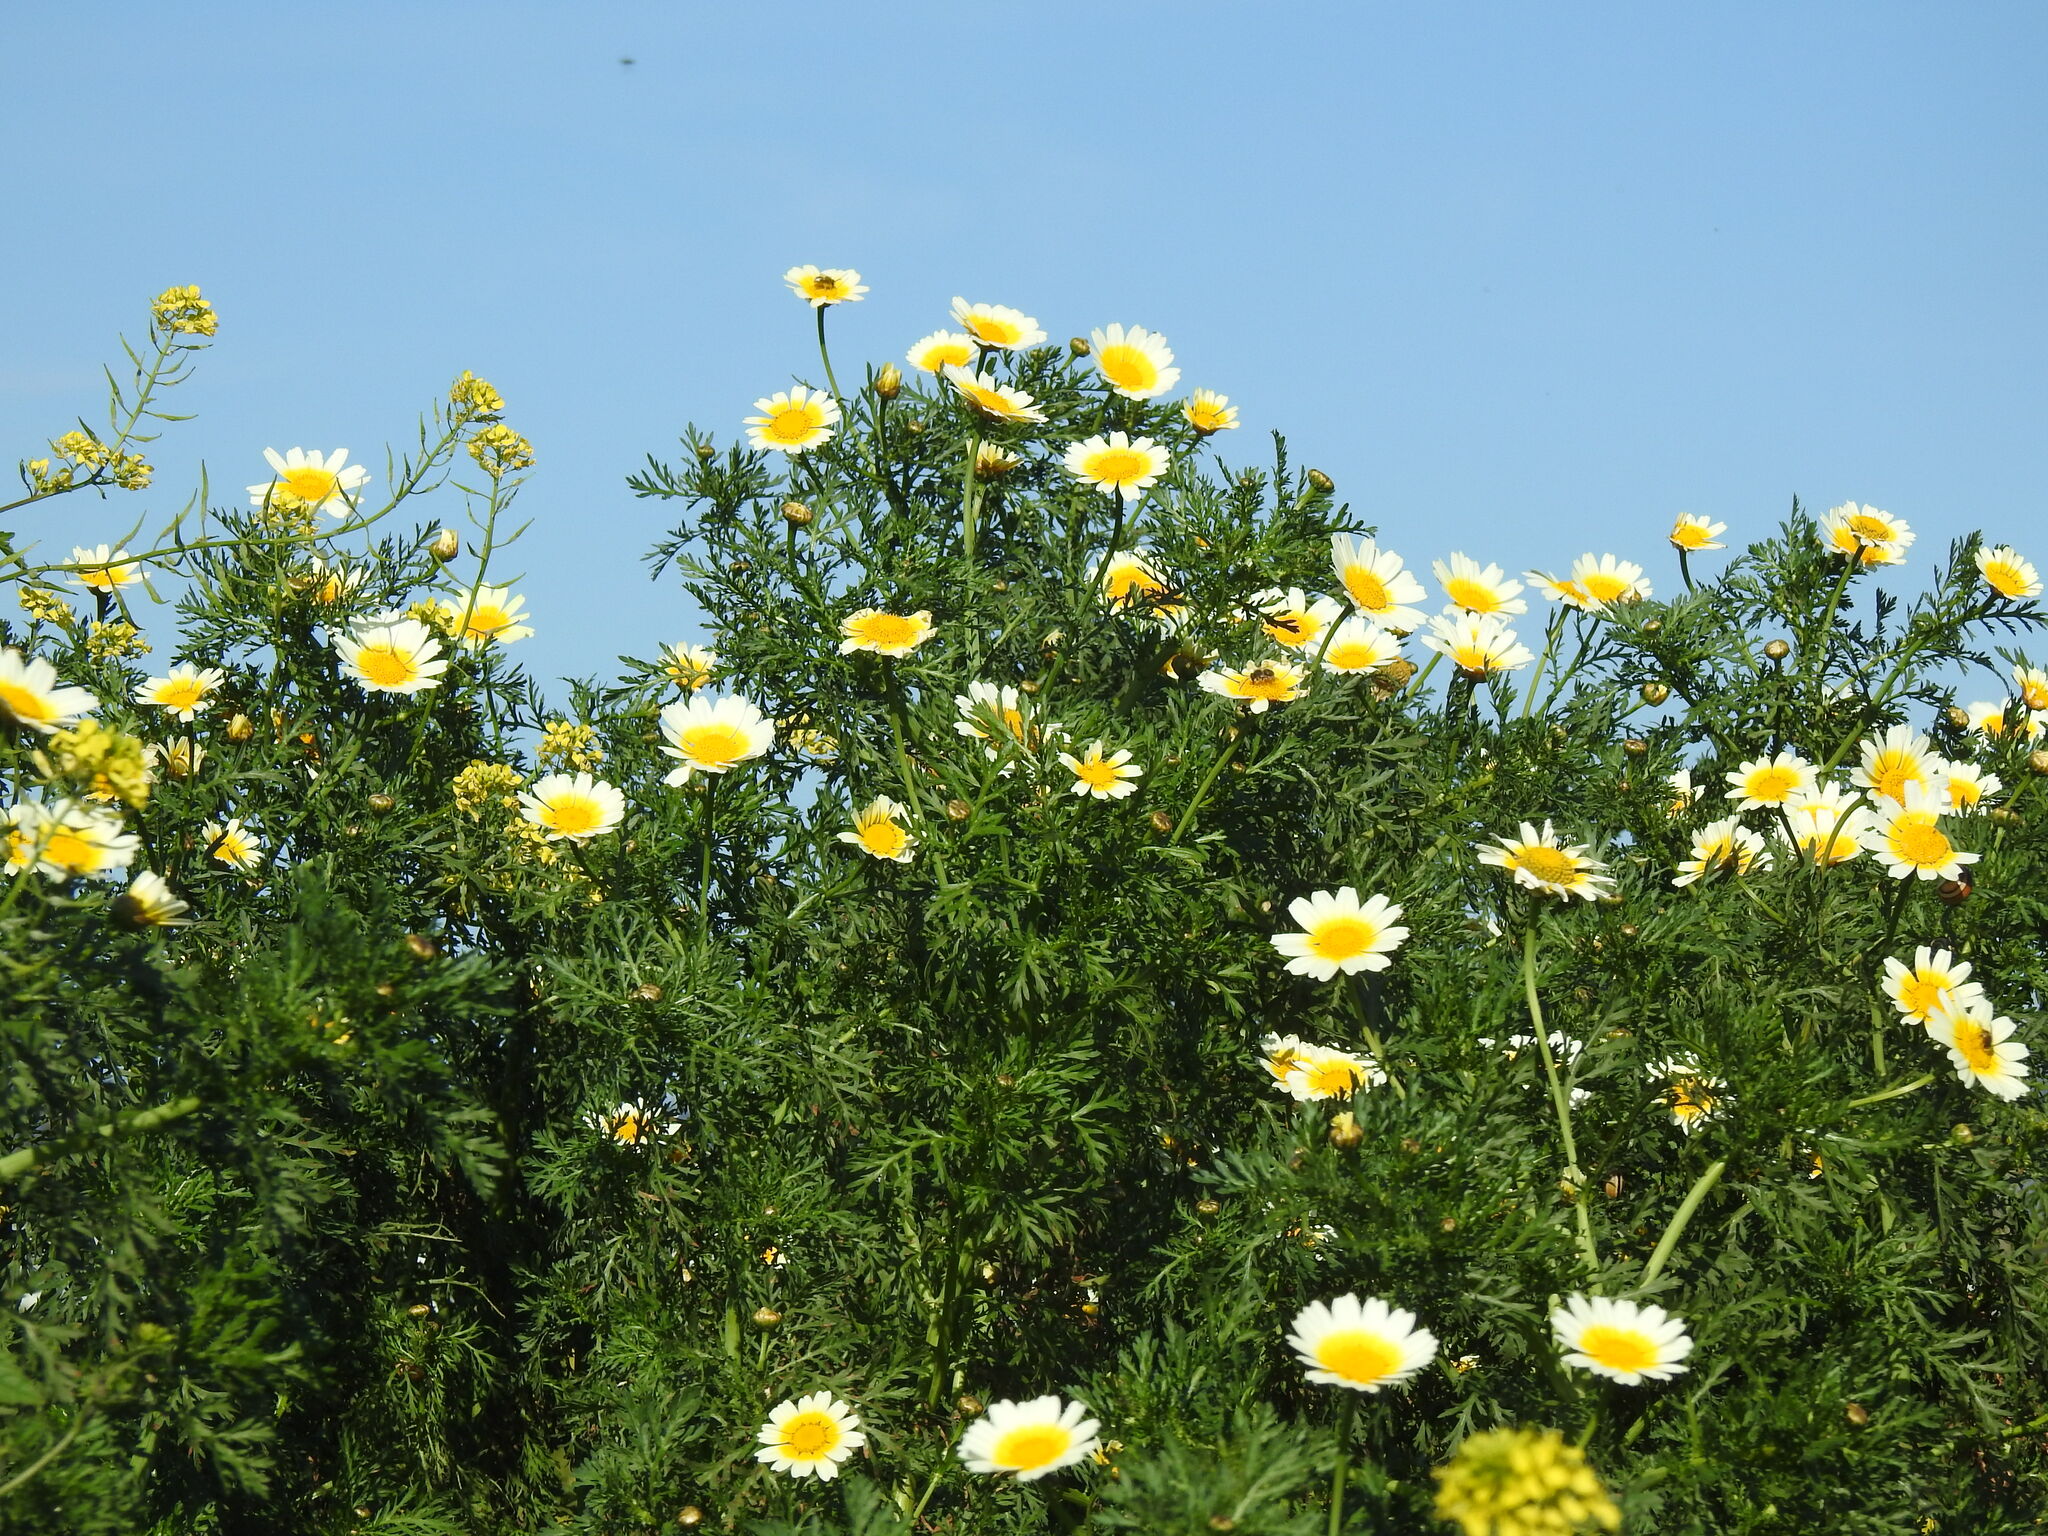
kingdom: Plantae
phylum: Tracheophyta
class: Magnoliopsida
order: Asterales
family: Asteraceae
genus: Glebionis
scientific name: Glebionis coronaria
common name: Crowndaisy
